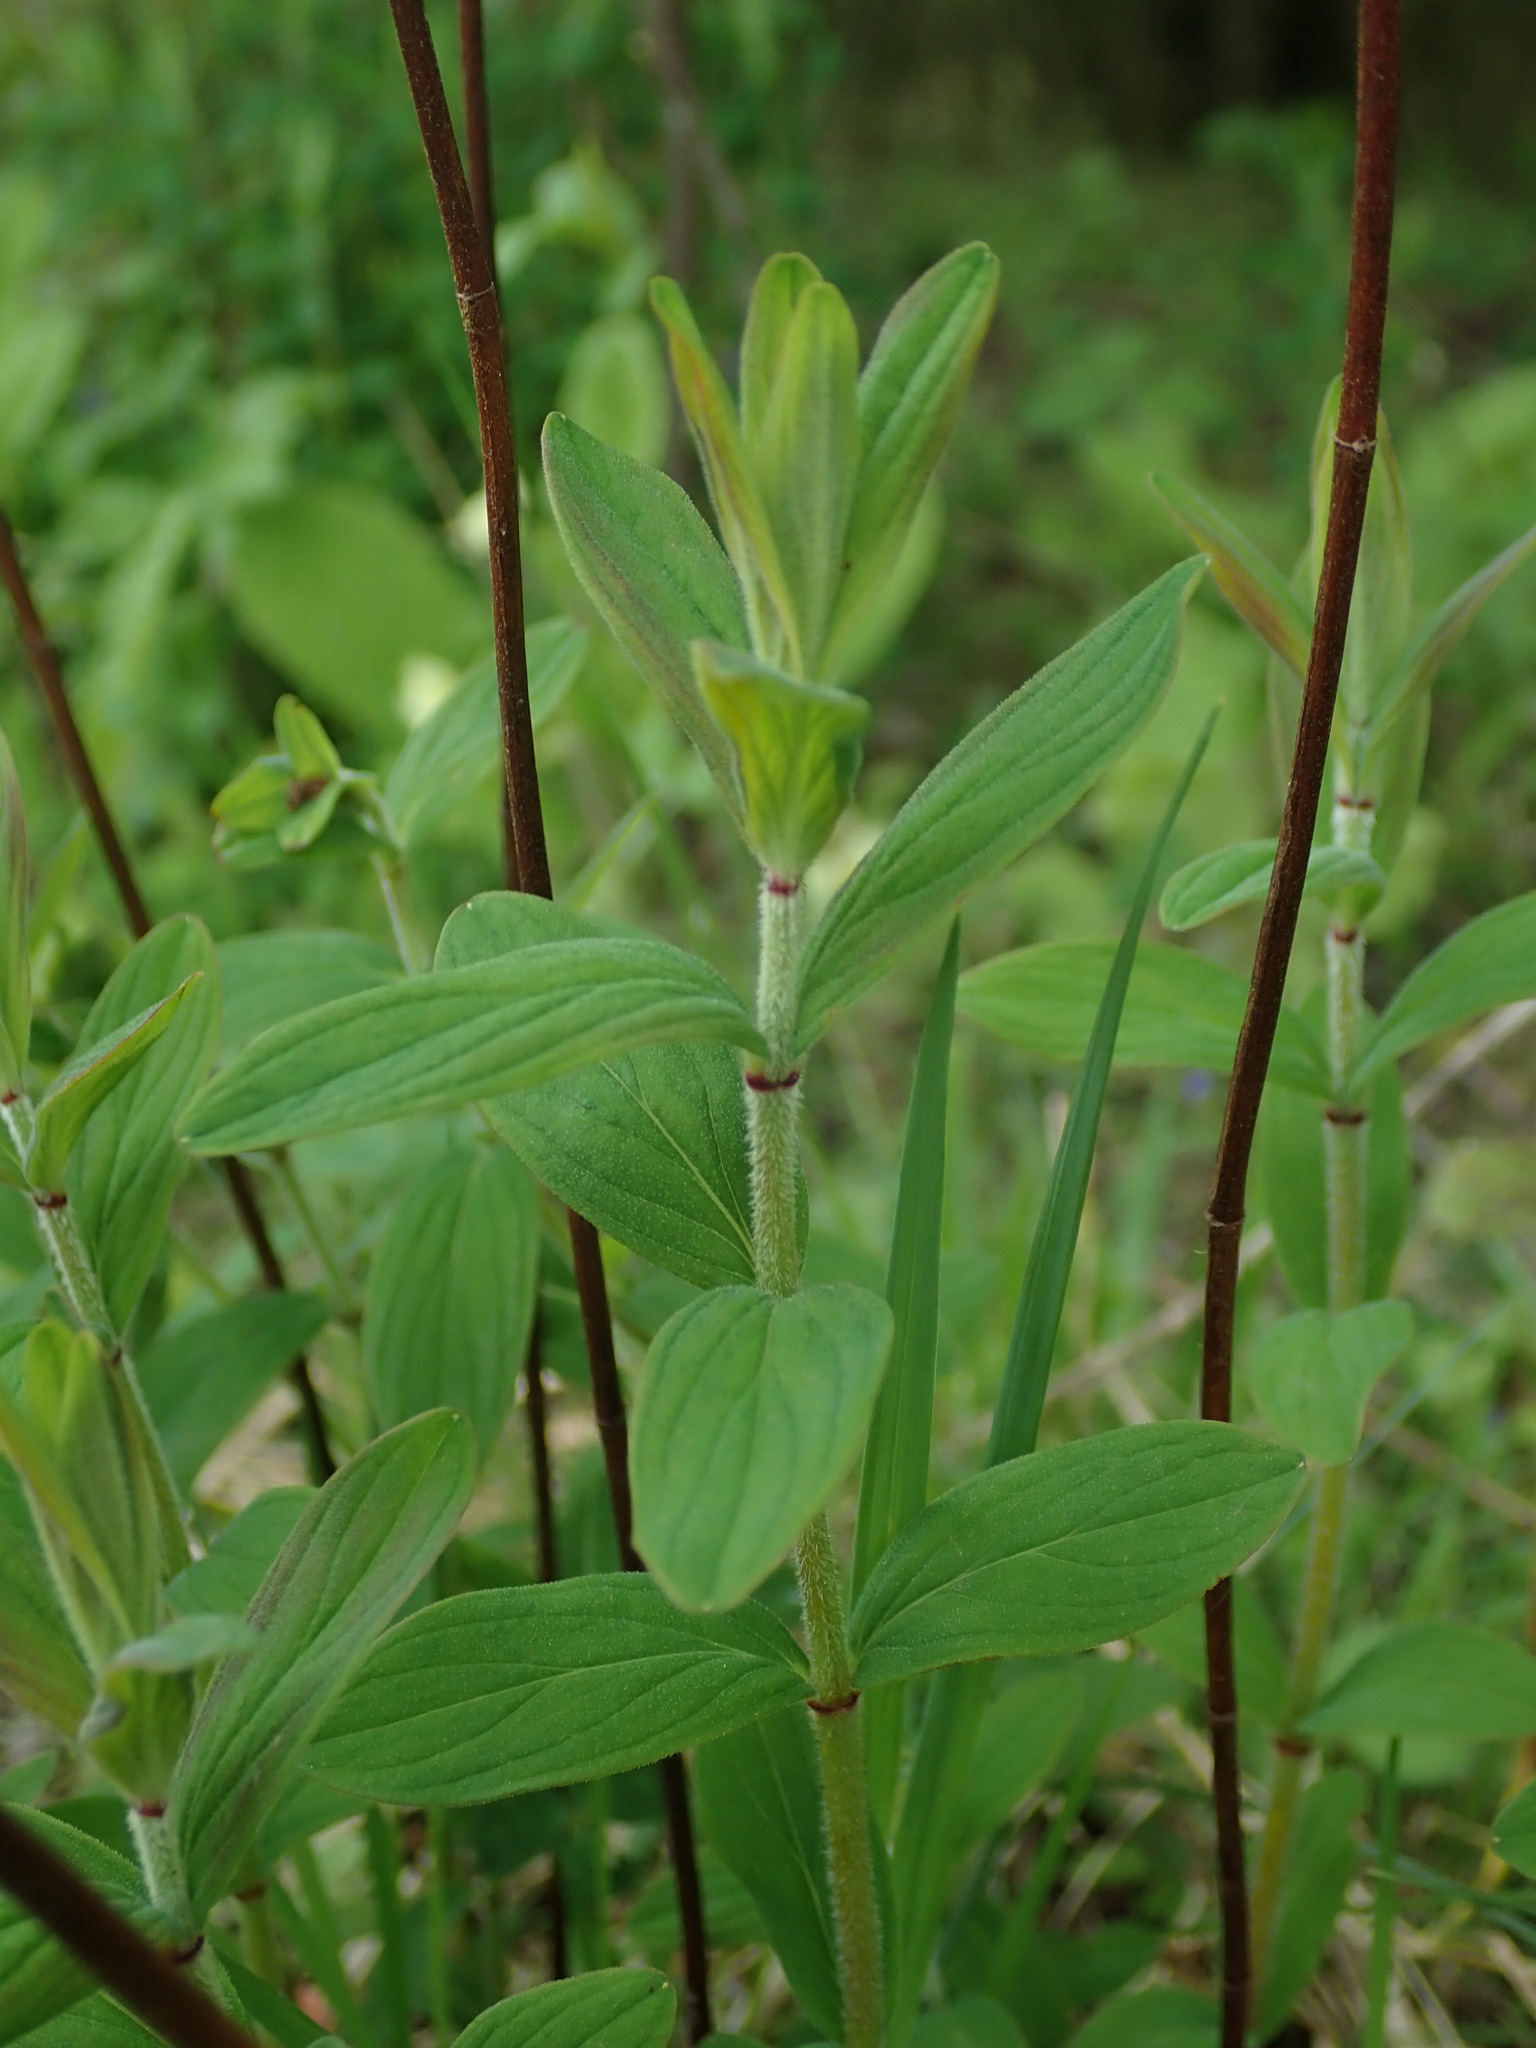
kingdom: Plantae
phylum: Tracheophyta
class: Magnoliopsida
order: Malpighiales
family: Hypericaceae
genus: Hypericum
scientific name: Hypericum hirsutum
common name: Hairy st. john's-wort
